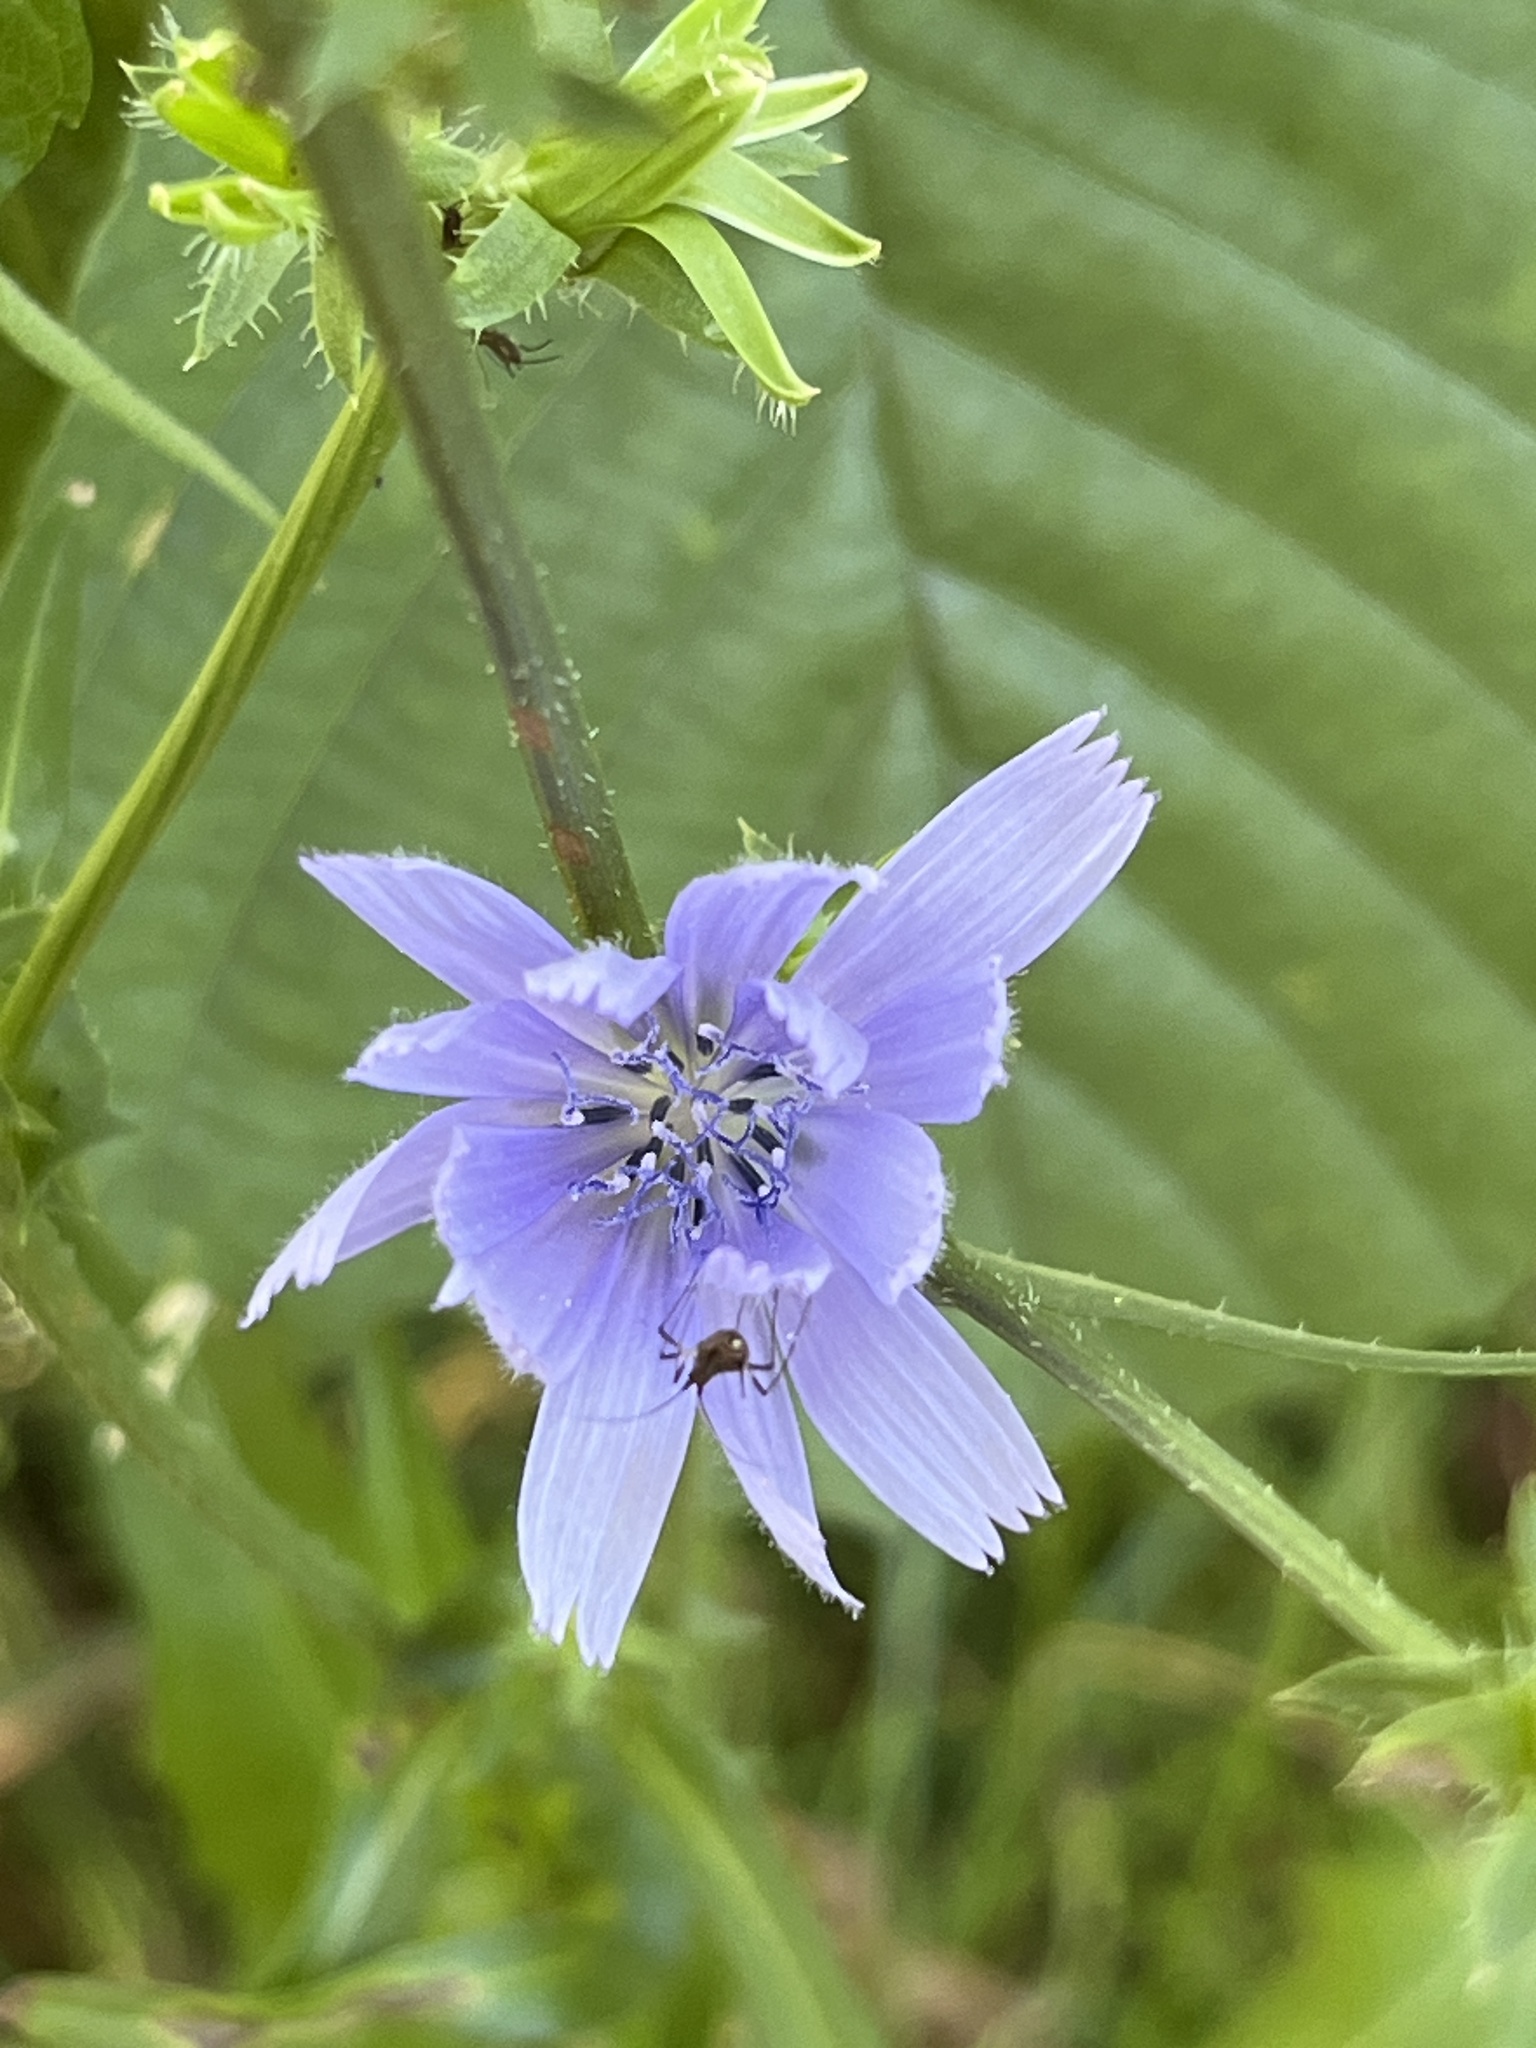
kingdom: Plantae
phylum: Tracheophyta
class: Magnoliopsida
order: Asterales
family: Asteraceae
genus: Cichorium
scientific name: Cichorium intybus
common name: Chicory
